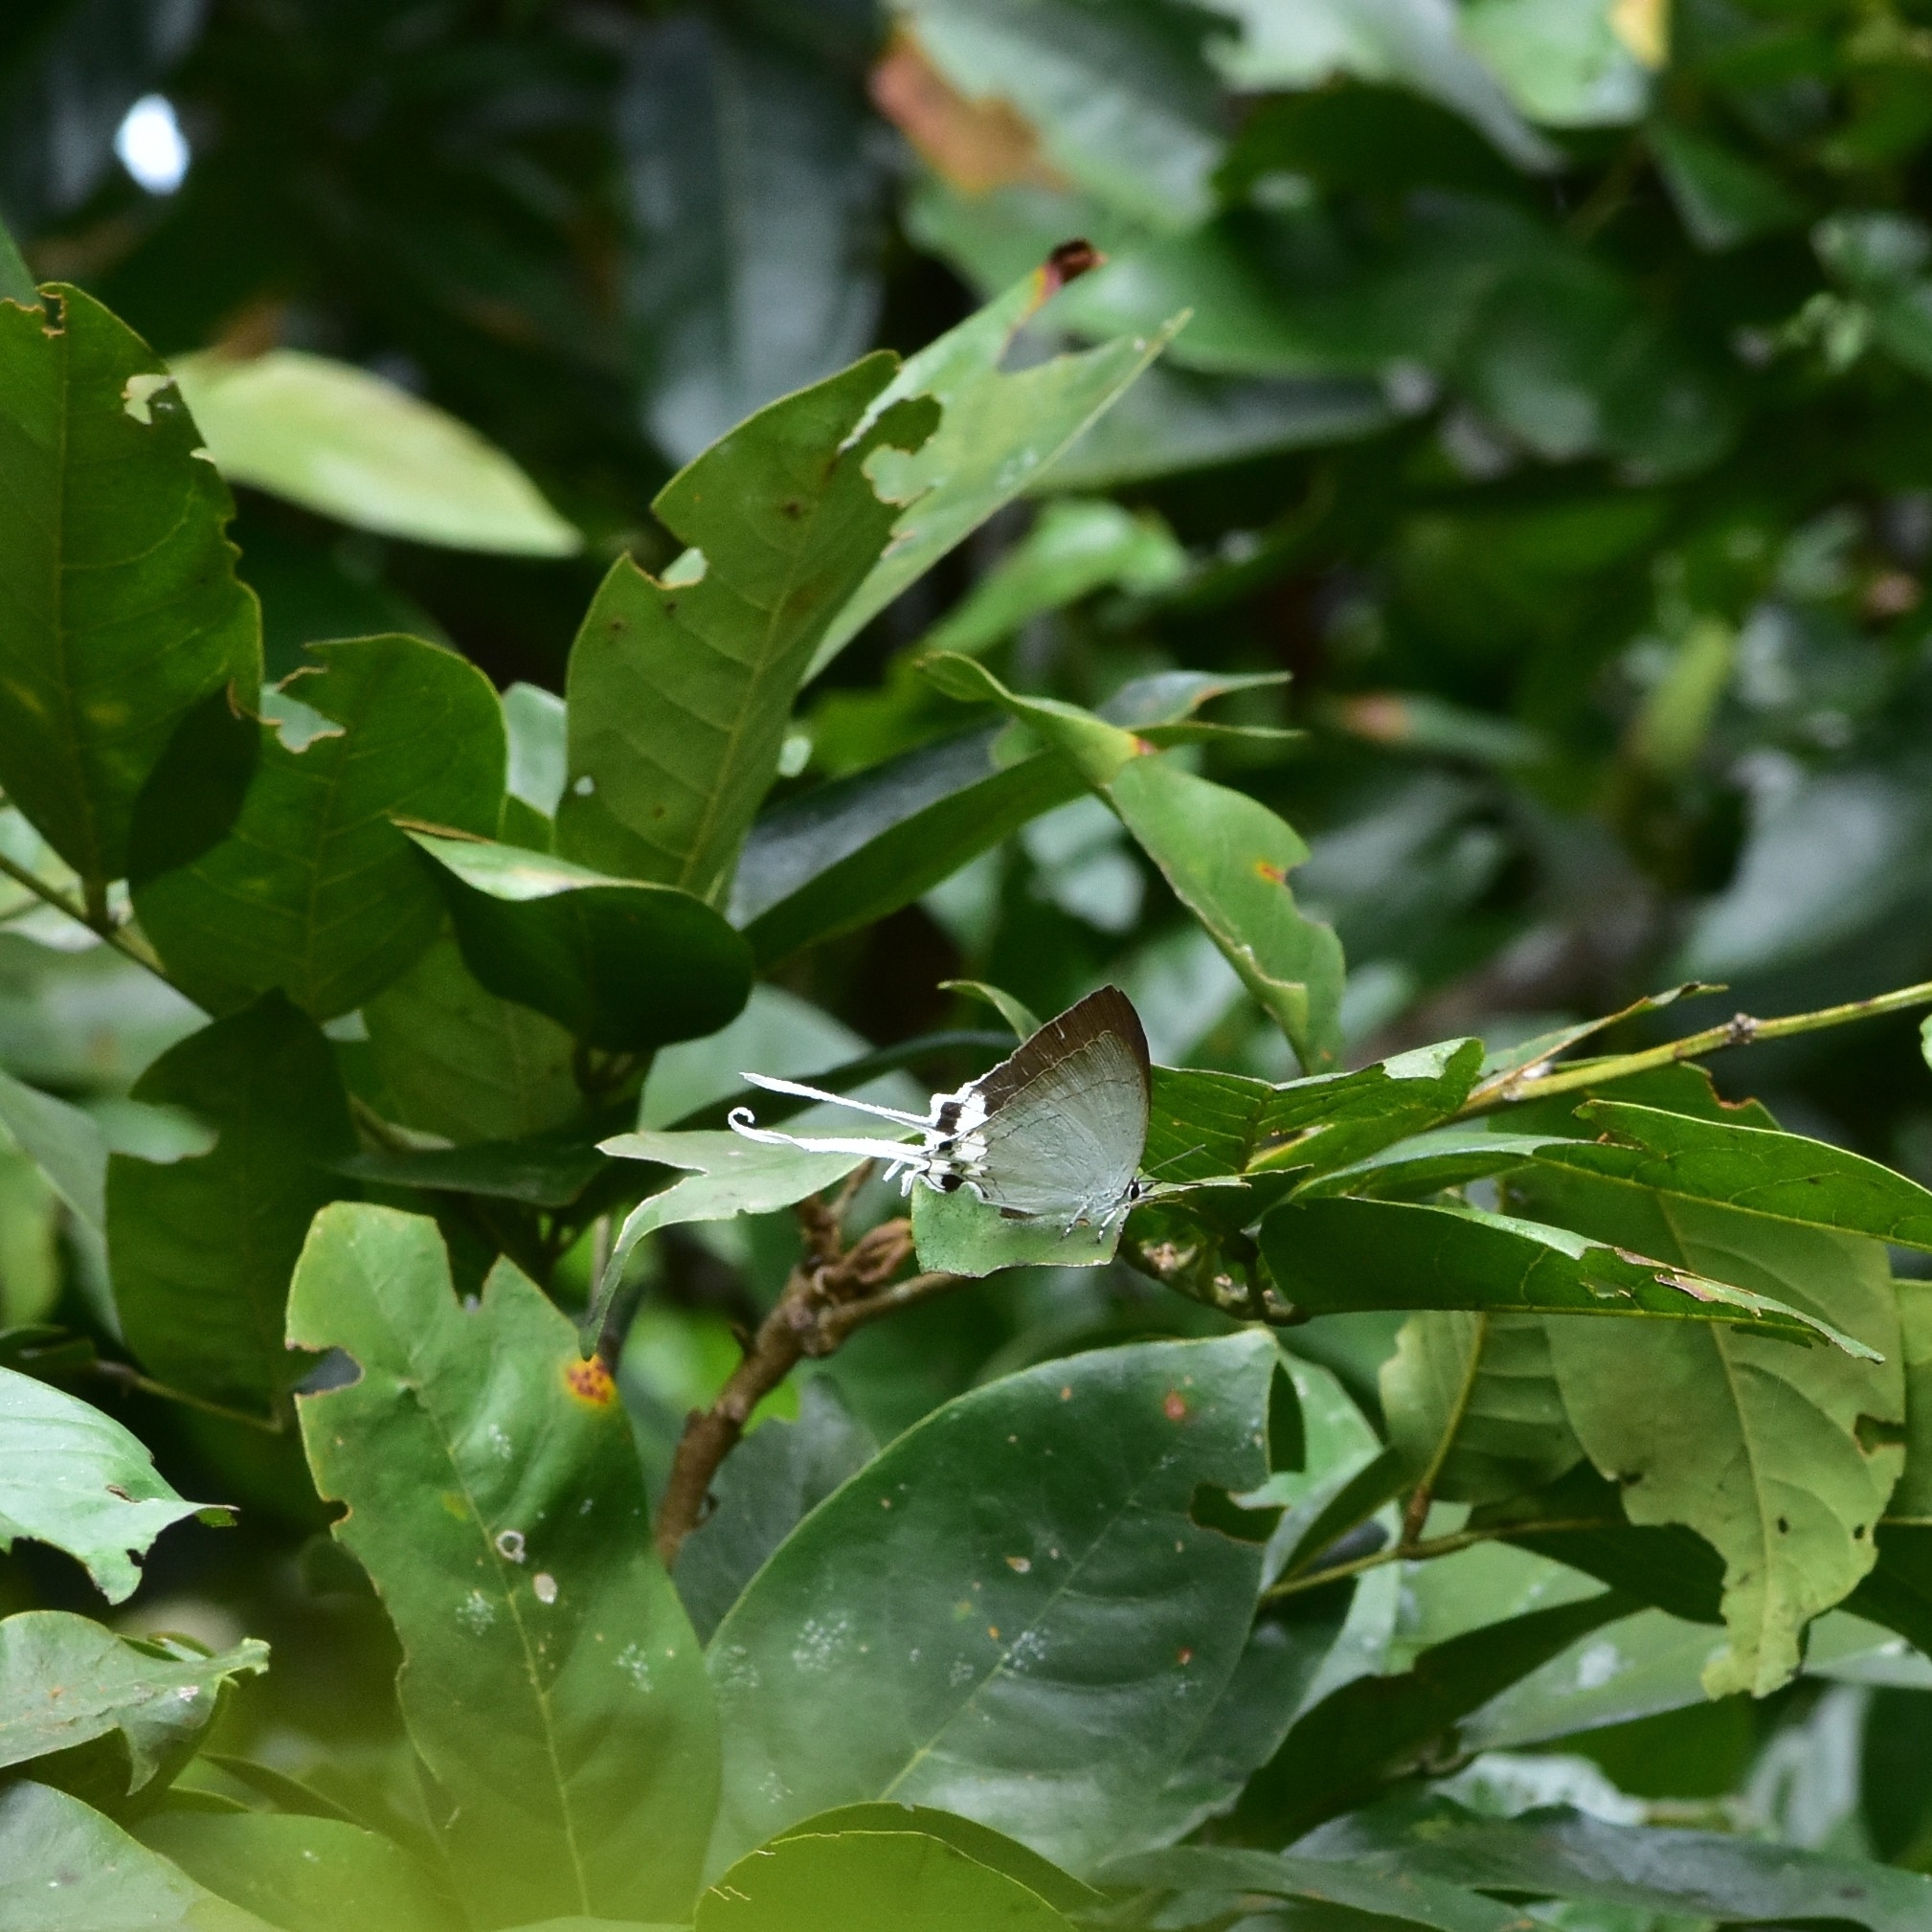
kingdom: Animalia
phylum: Arthropoda
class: Insecta
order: Lepidoptera
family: Lycaenidae
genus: Cheritra
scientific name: Cheritra freja
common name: Common imperial
